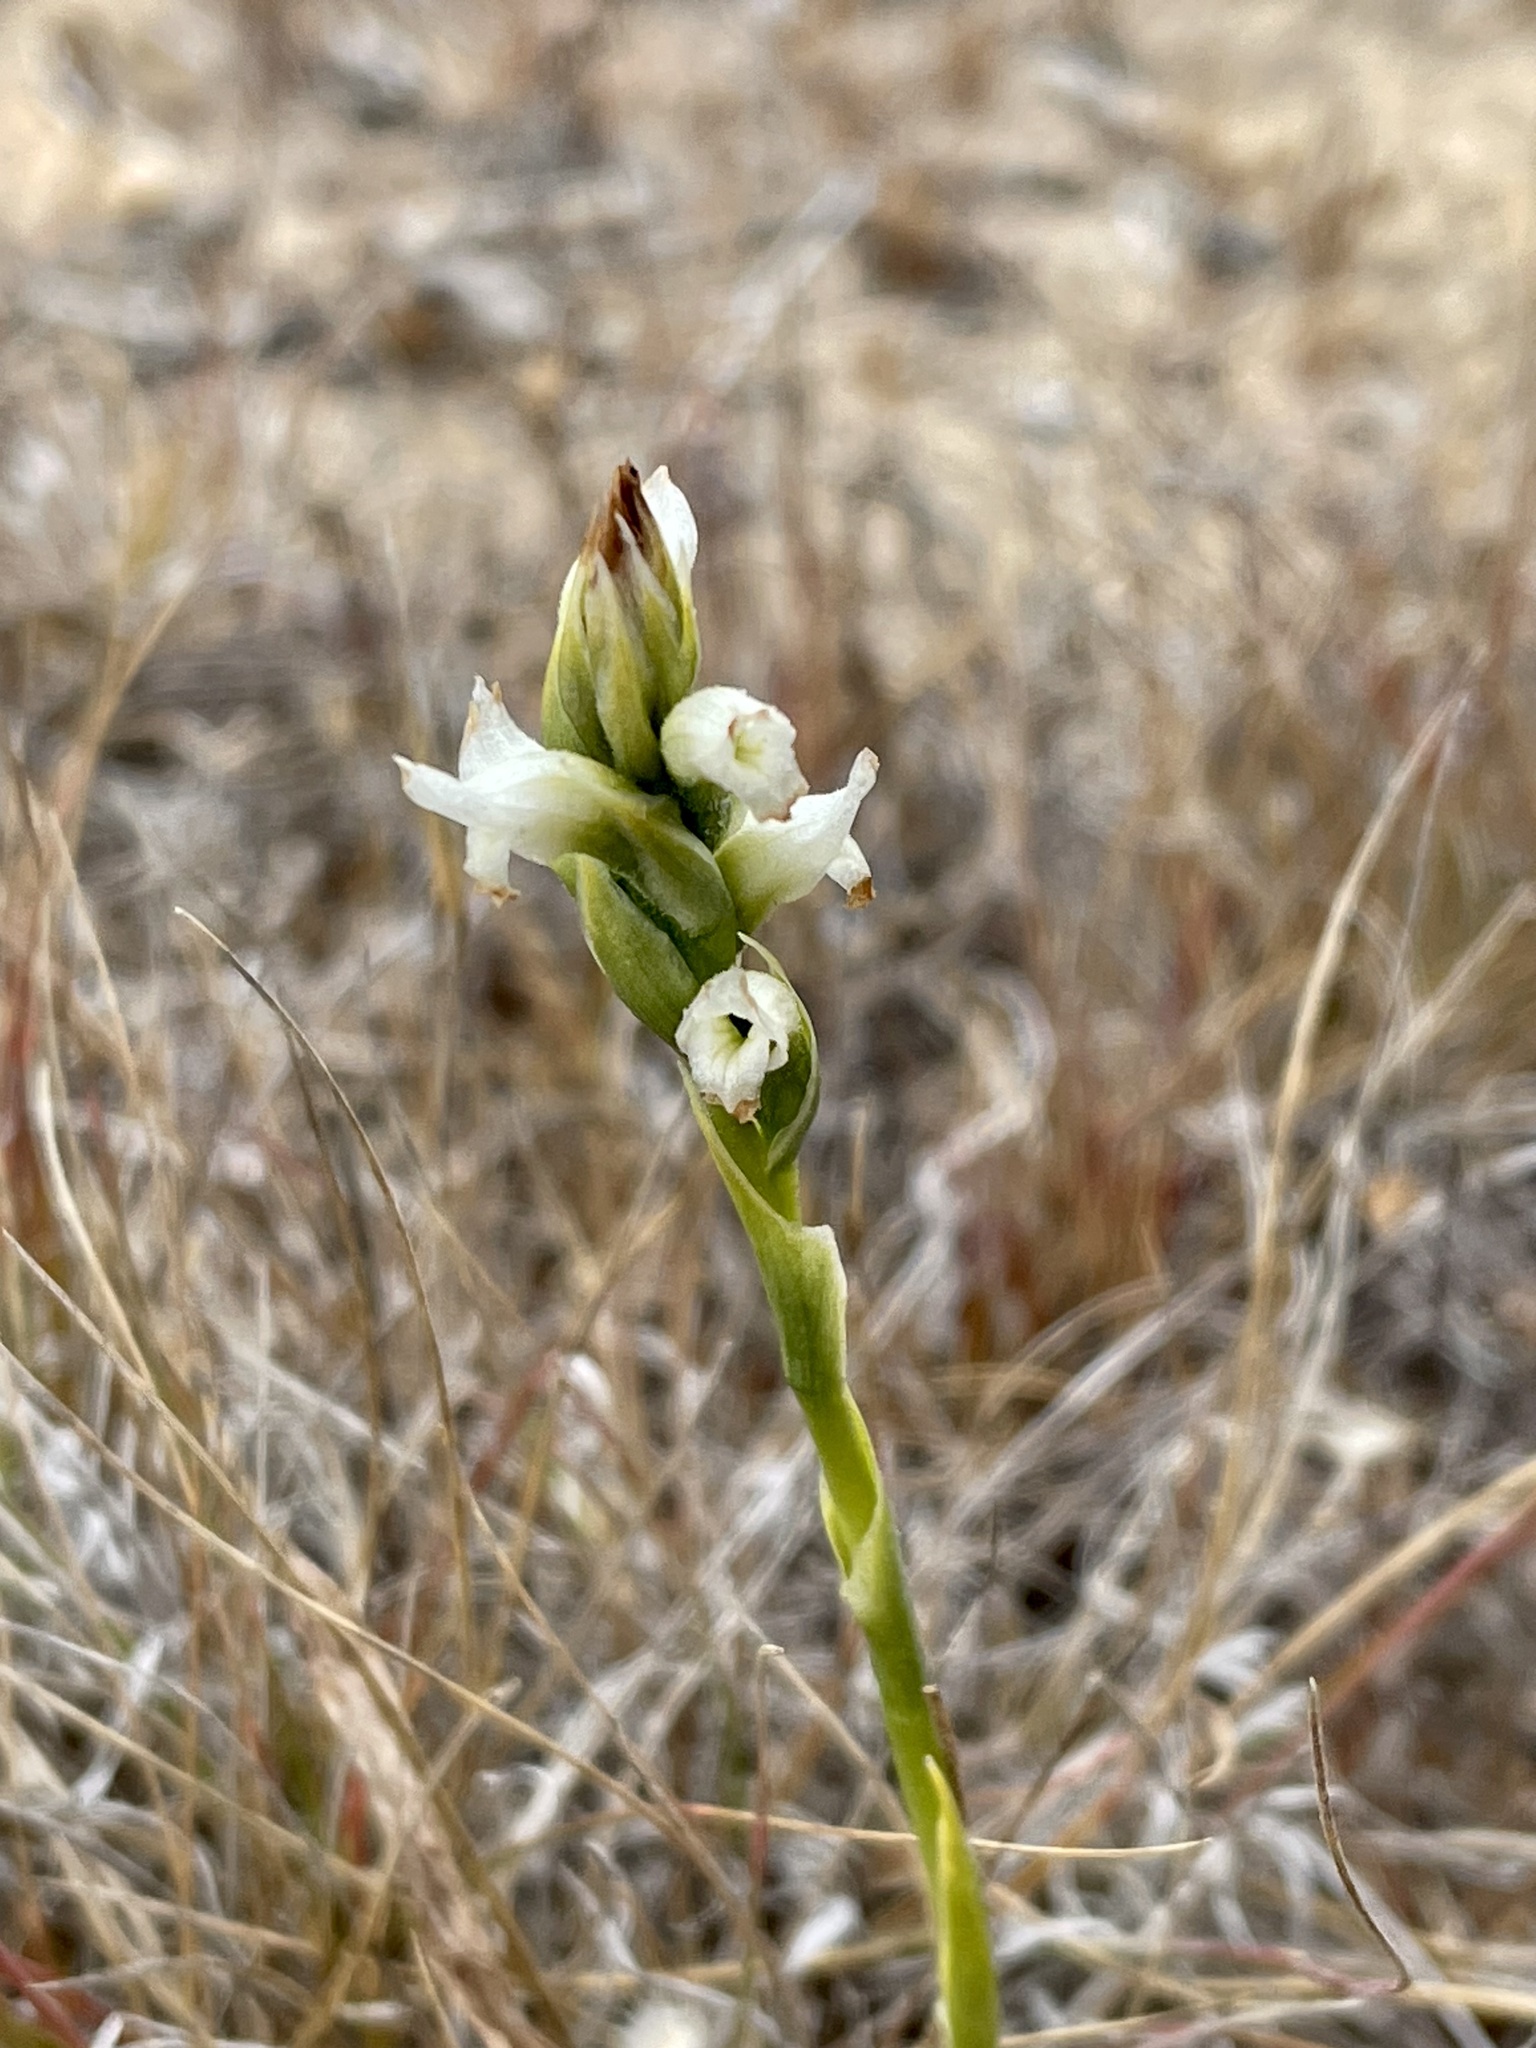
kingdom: Plantae
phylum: Tracheophyta
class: Liliopsida
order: Asparagales
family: Orchidaceae
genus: Spiranthes
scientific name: Spiranthes romanzoffiana
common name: Irish lady's-tresses
